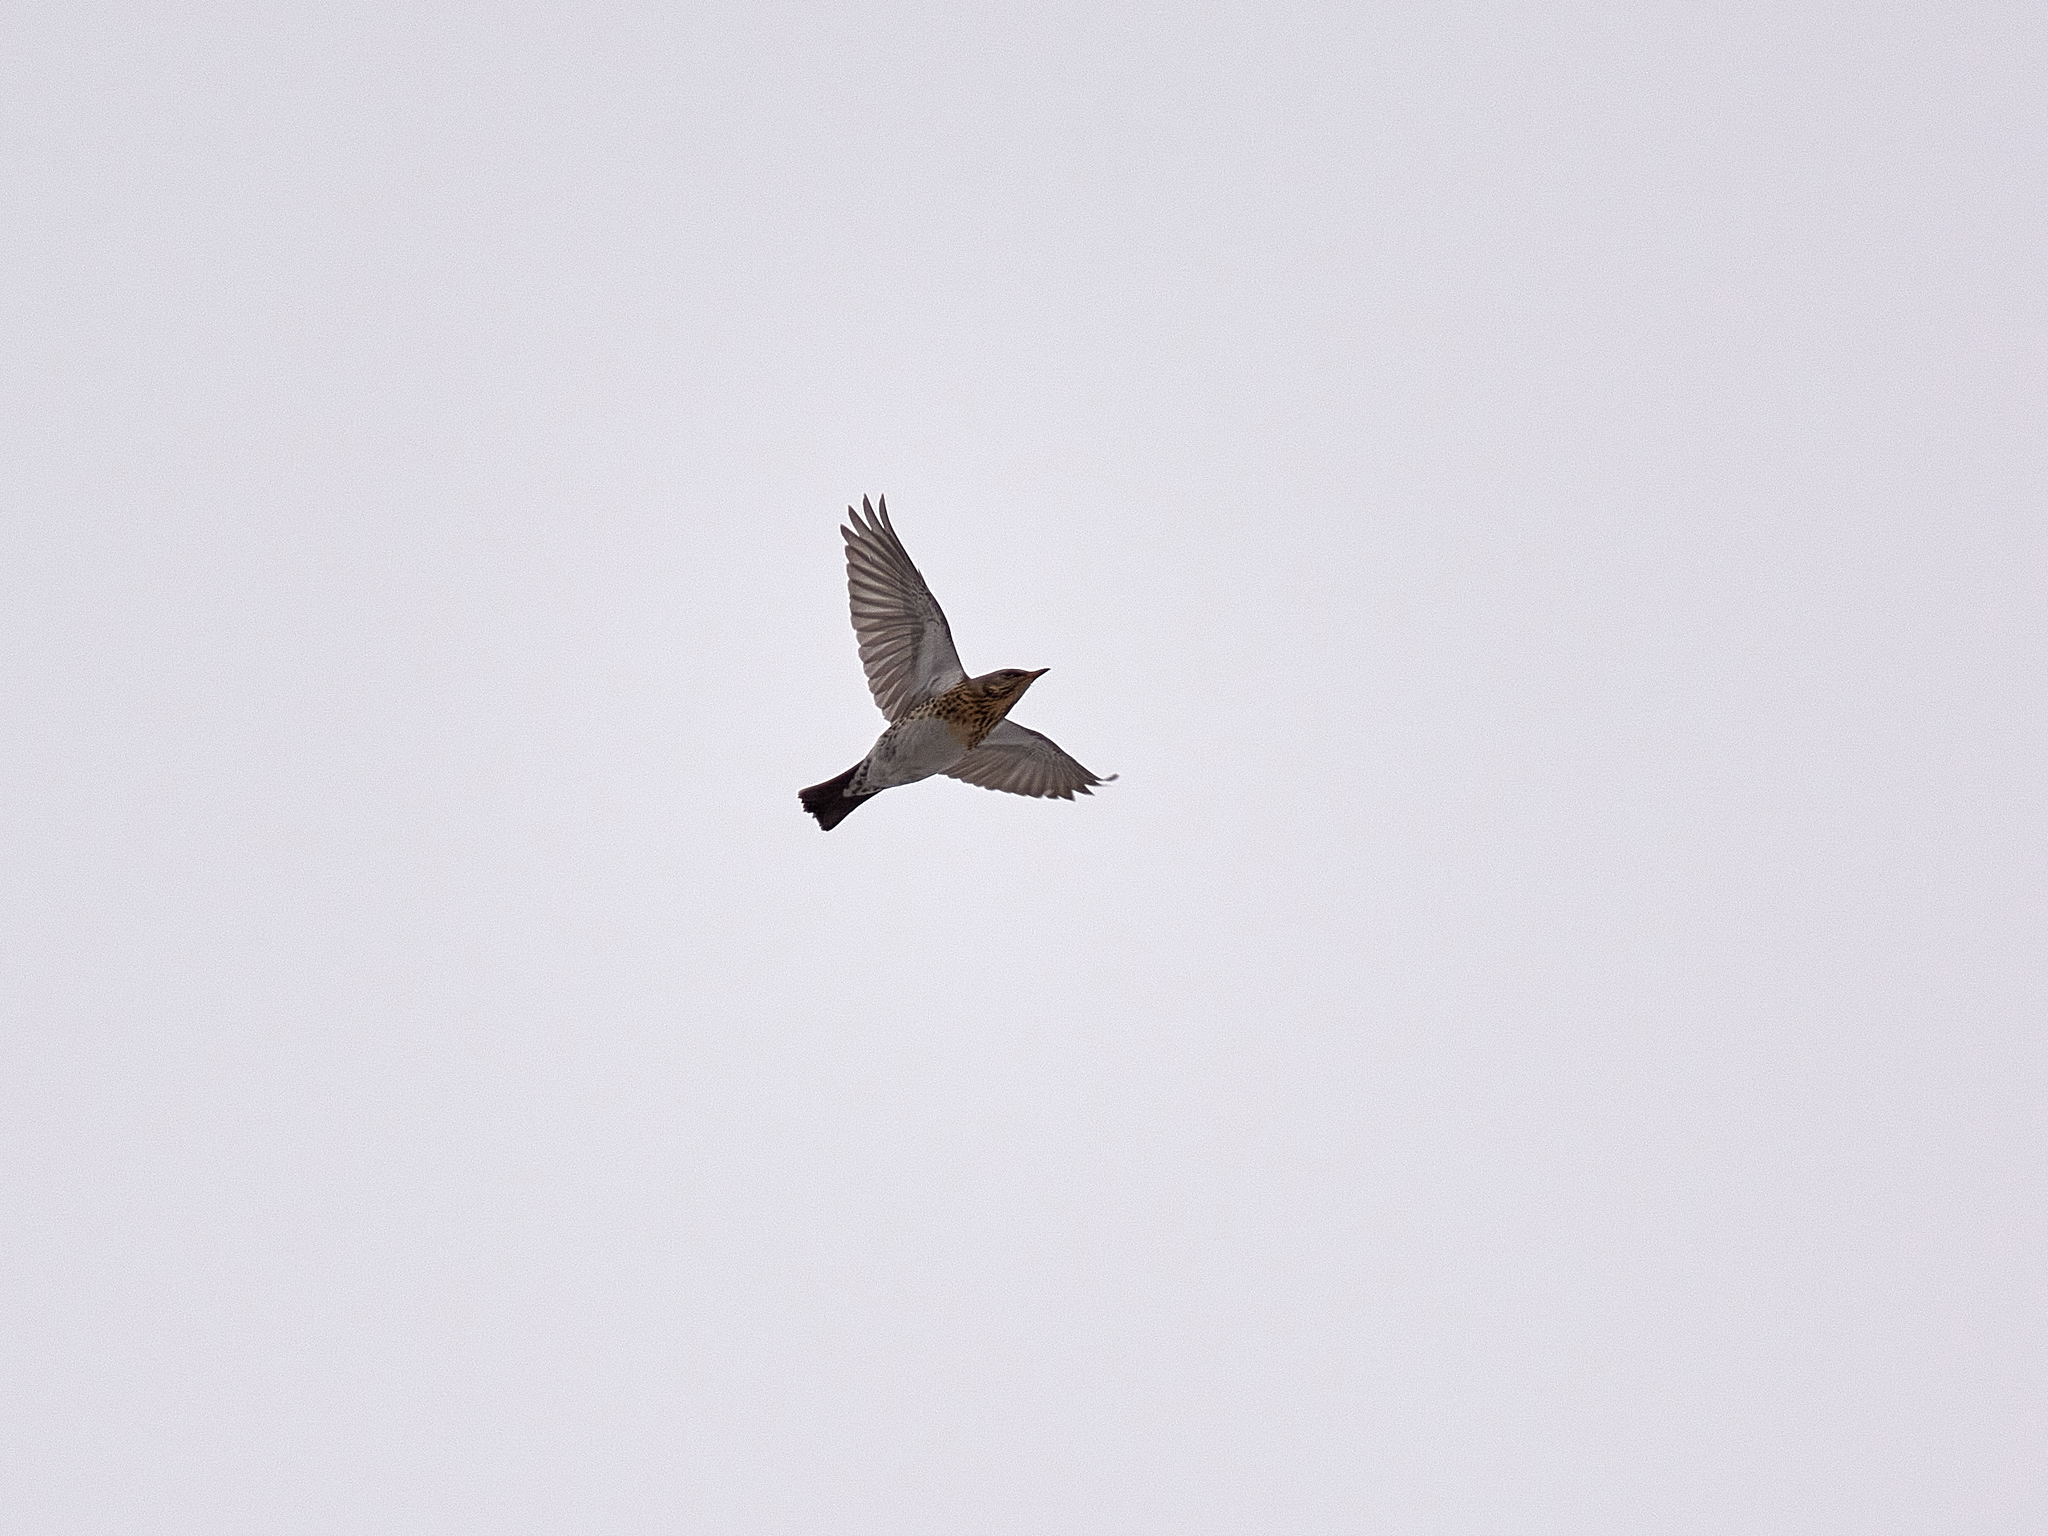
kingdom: Animalia
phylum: Chordata
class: Aves
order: Passeriformes
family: Turdidae
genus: Turdus
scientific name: Turdus pilaris
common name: Fieldfare
